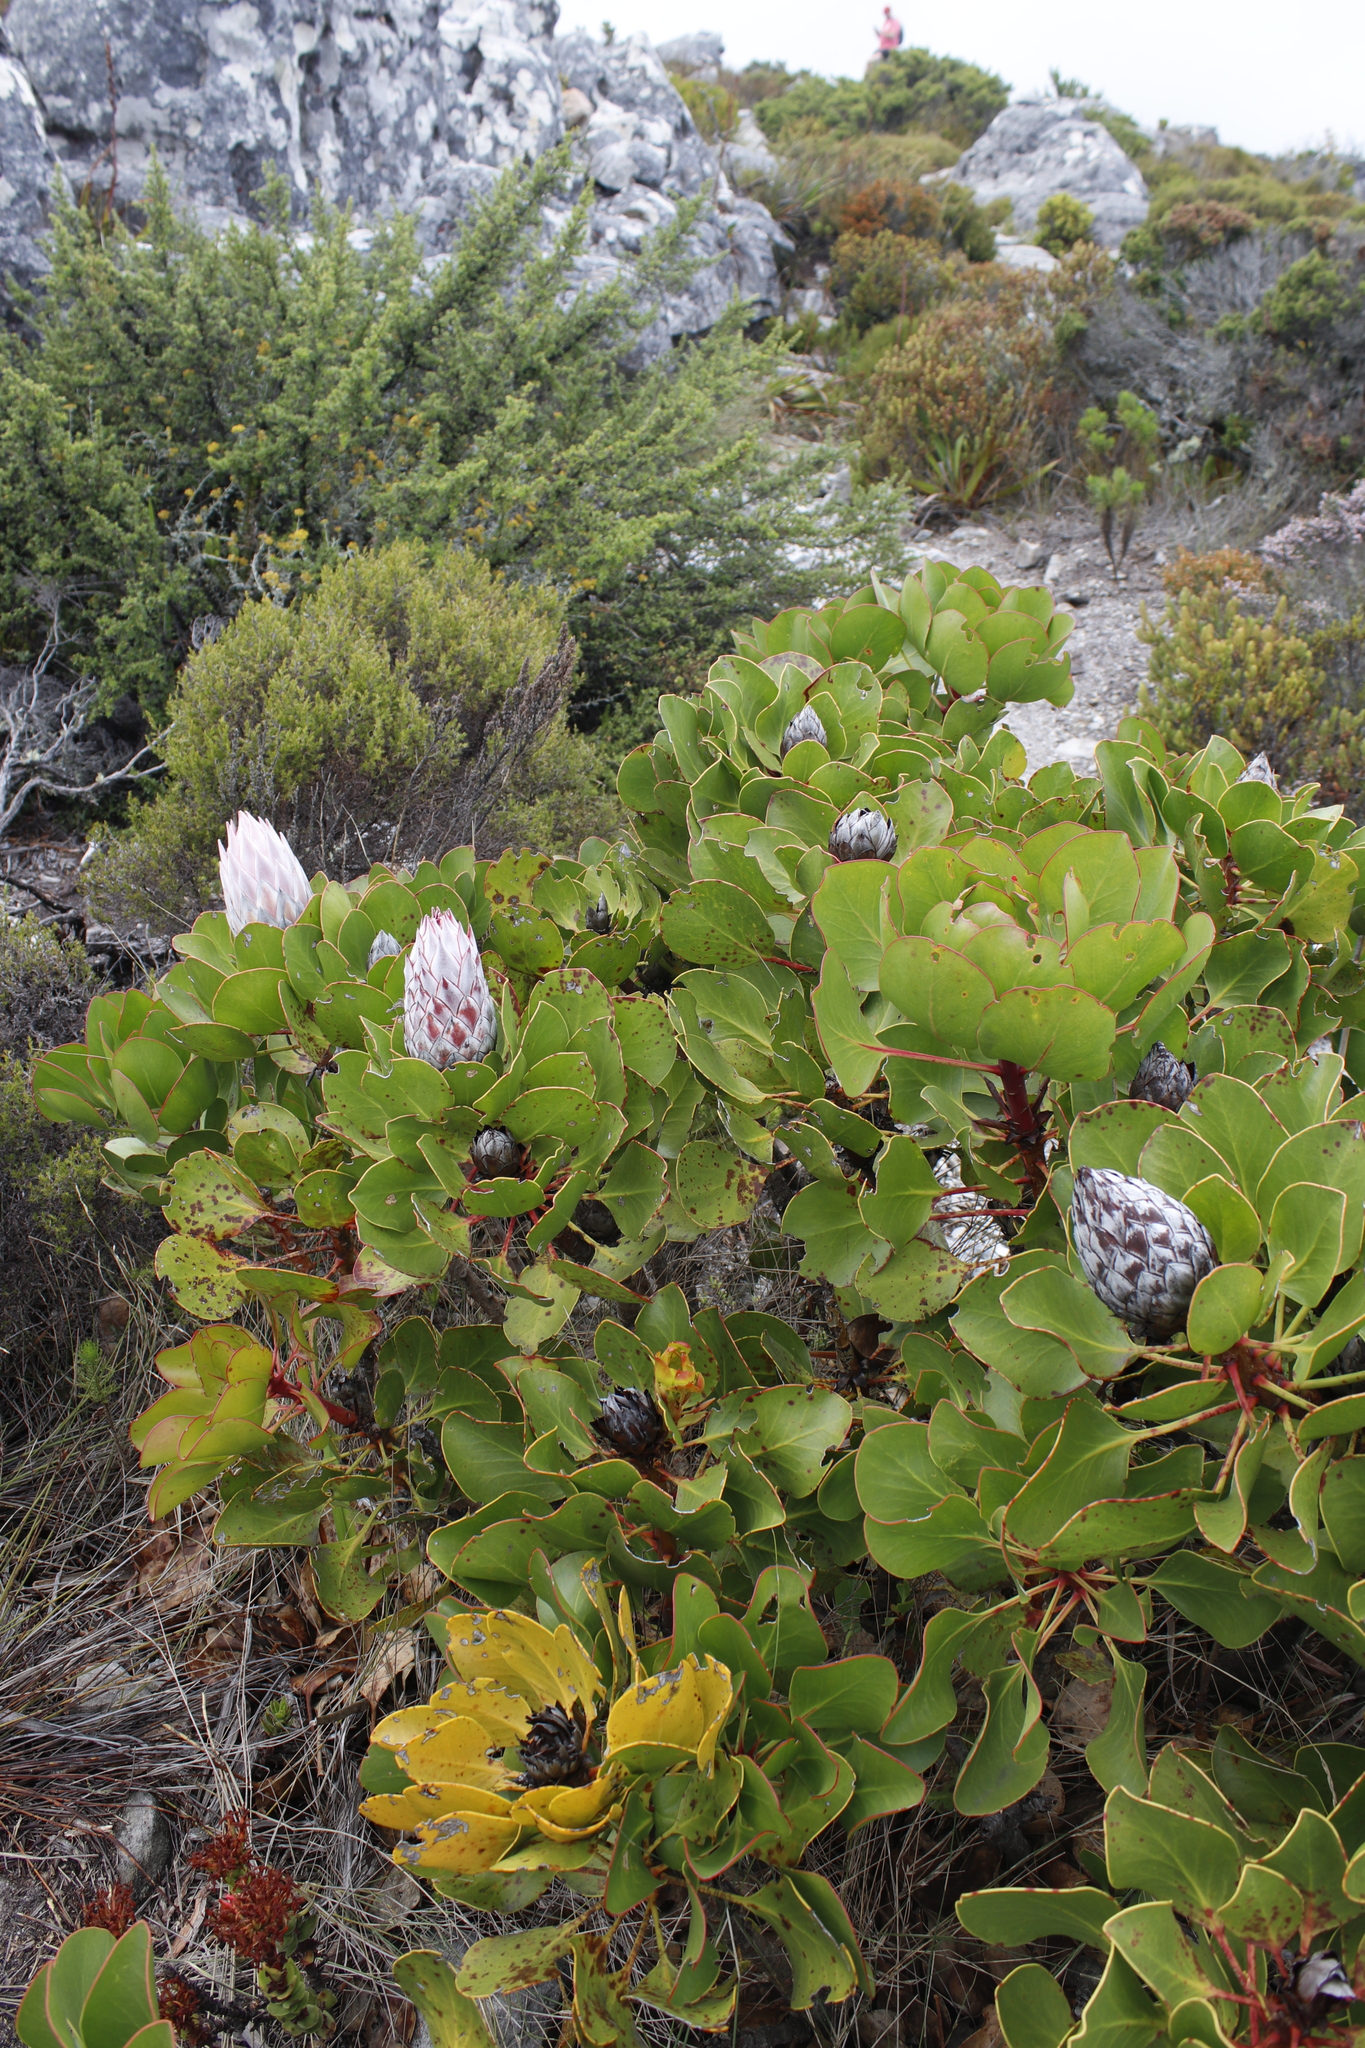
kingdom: Plantae
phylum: Tracheophyta
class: Magnoliopsida
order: Proteales
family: Proteaceae
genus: Protea
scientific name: Protea cynaroides
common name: King protea
